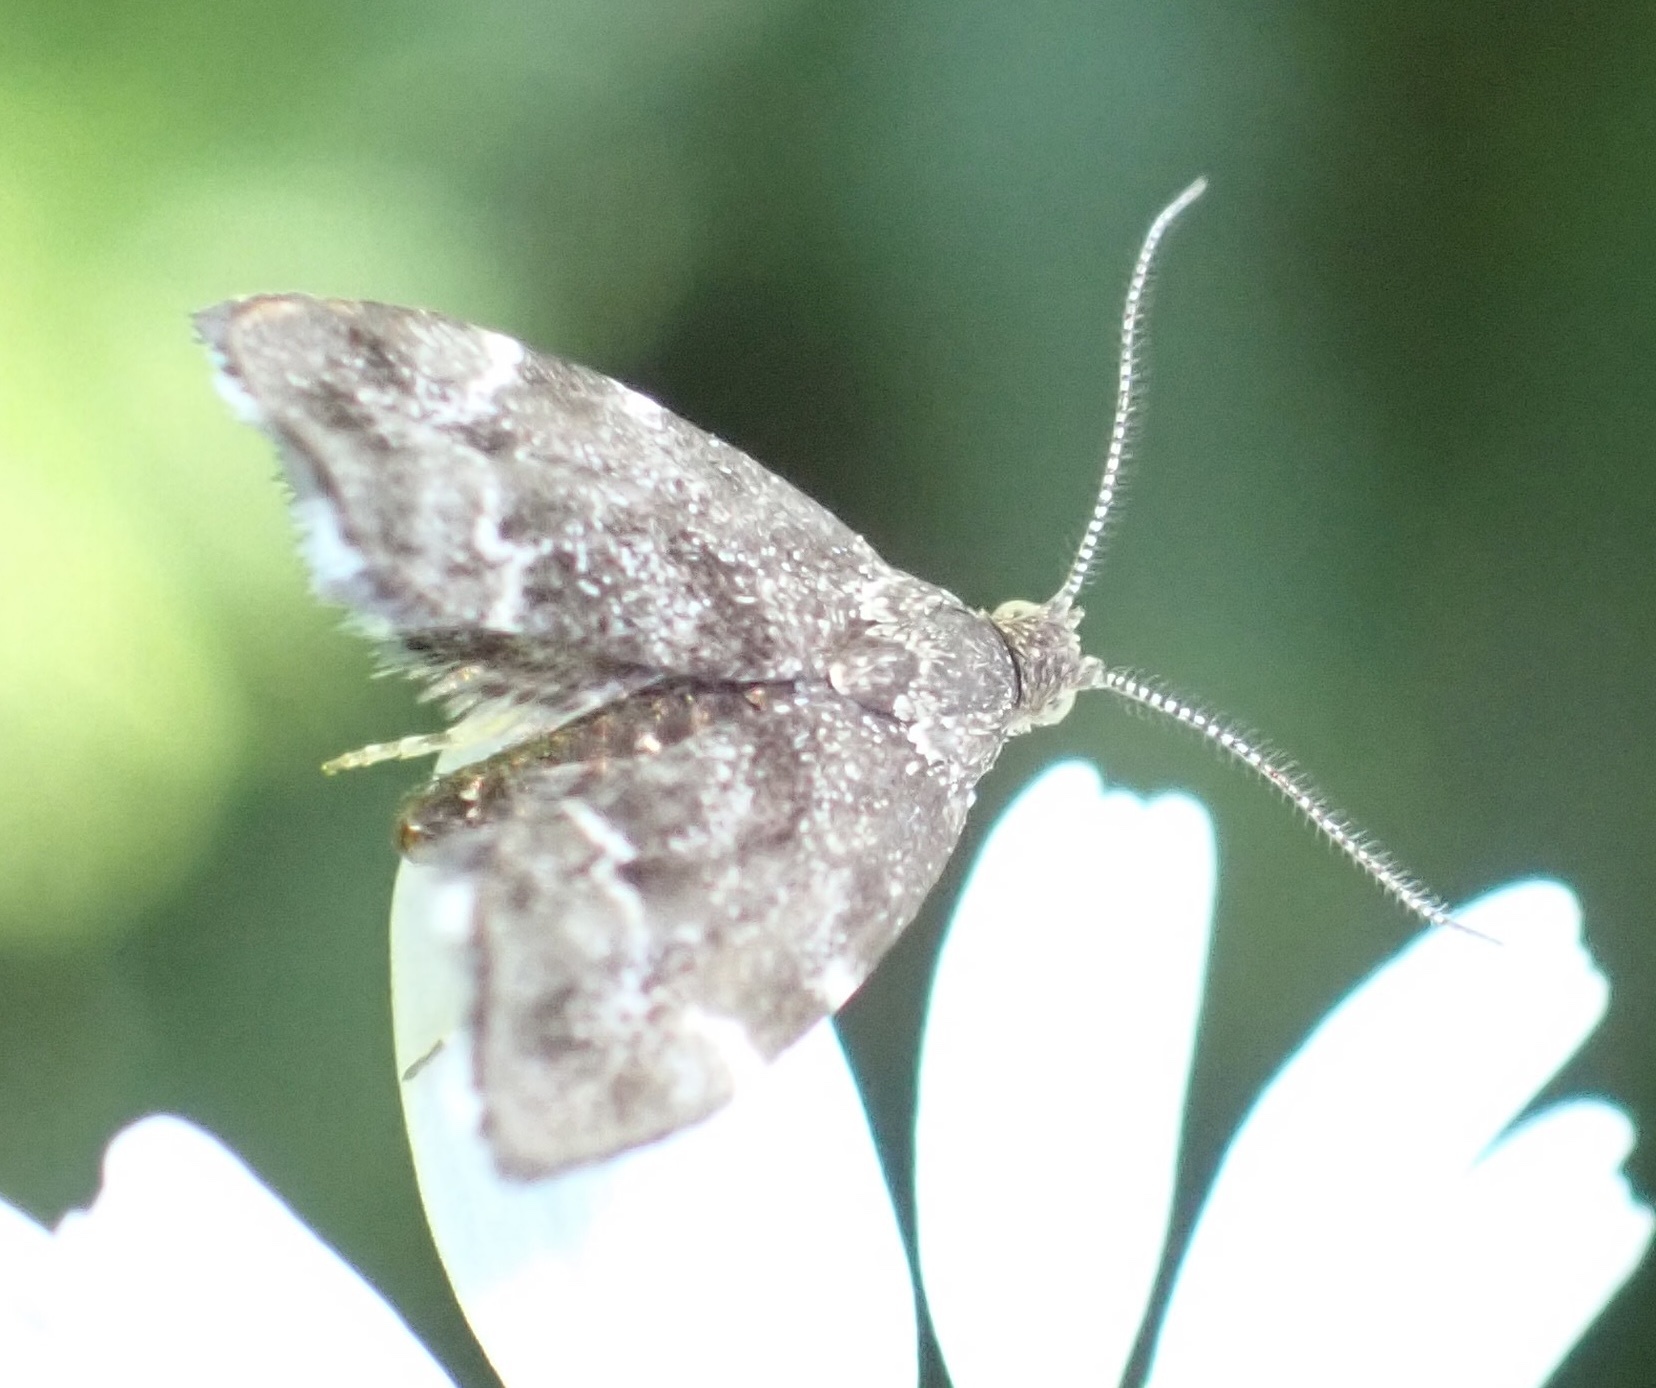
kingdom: Animalia
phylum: Arthropoda
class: Insecta
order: Lepidoptera
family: Choreutidae
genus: Anthophila
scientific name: Anthophila fabriciana
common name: Nettle-tap
